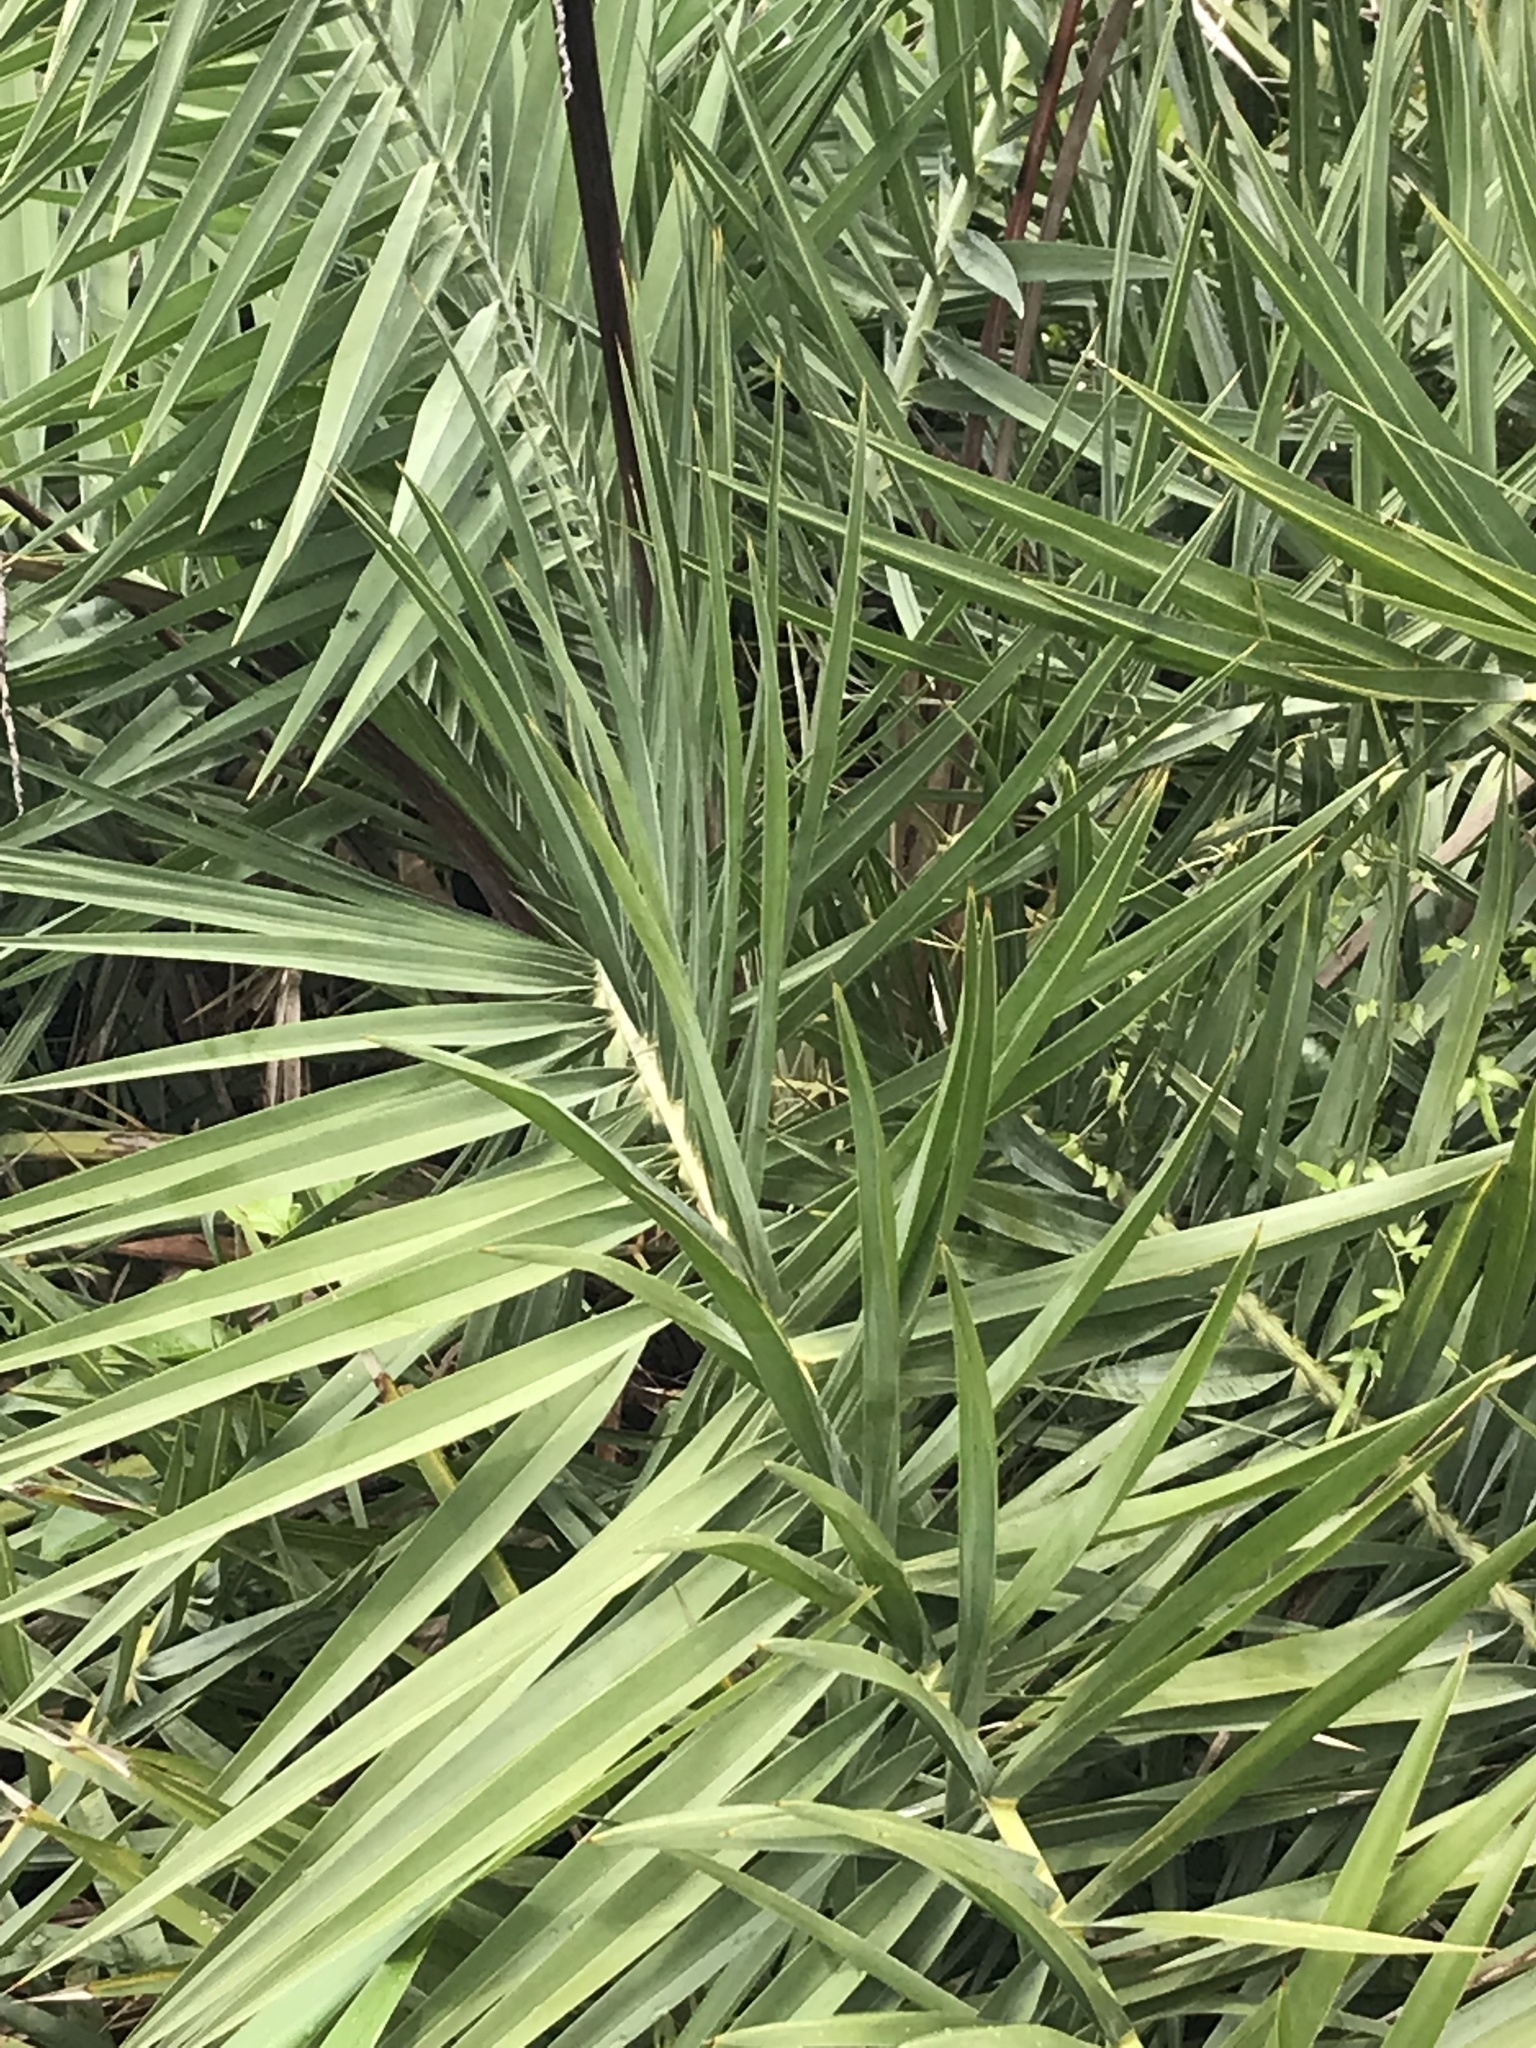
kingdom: Plantae
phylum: Tracheophyta
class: Liliopsida
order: Arecales
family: Arecaceae
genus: Phoenix
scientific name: Phoenix loureiroi
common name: Loureiro's palm
